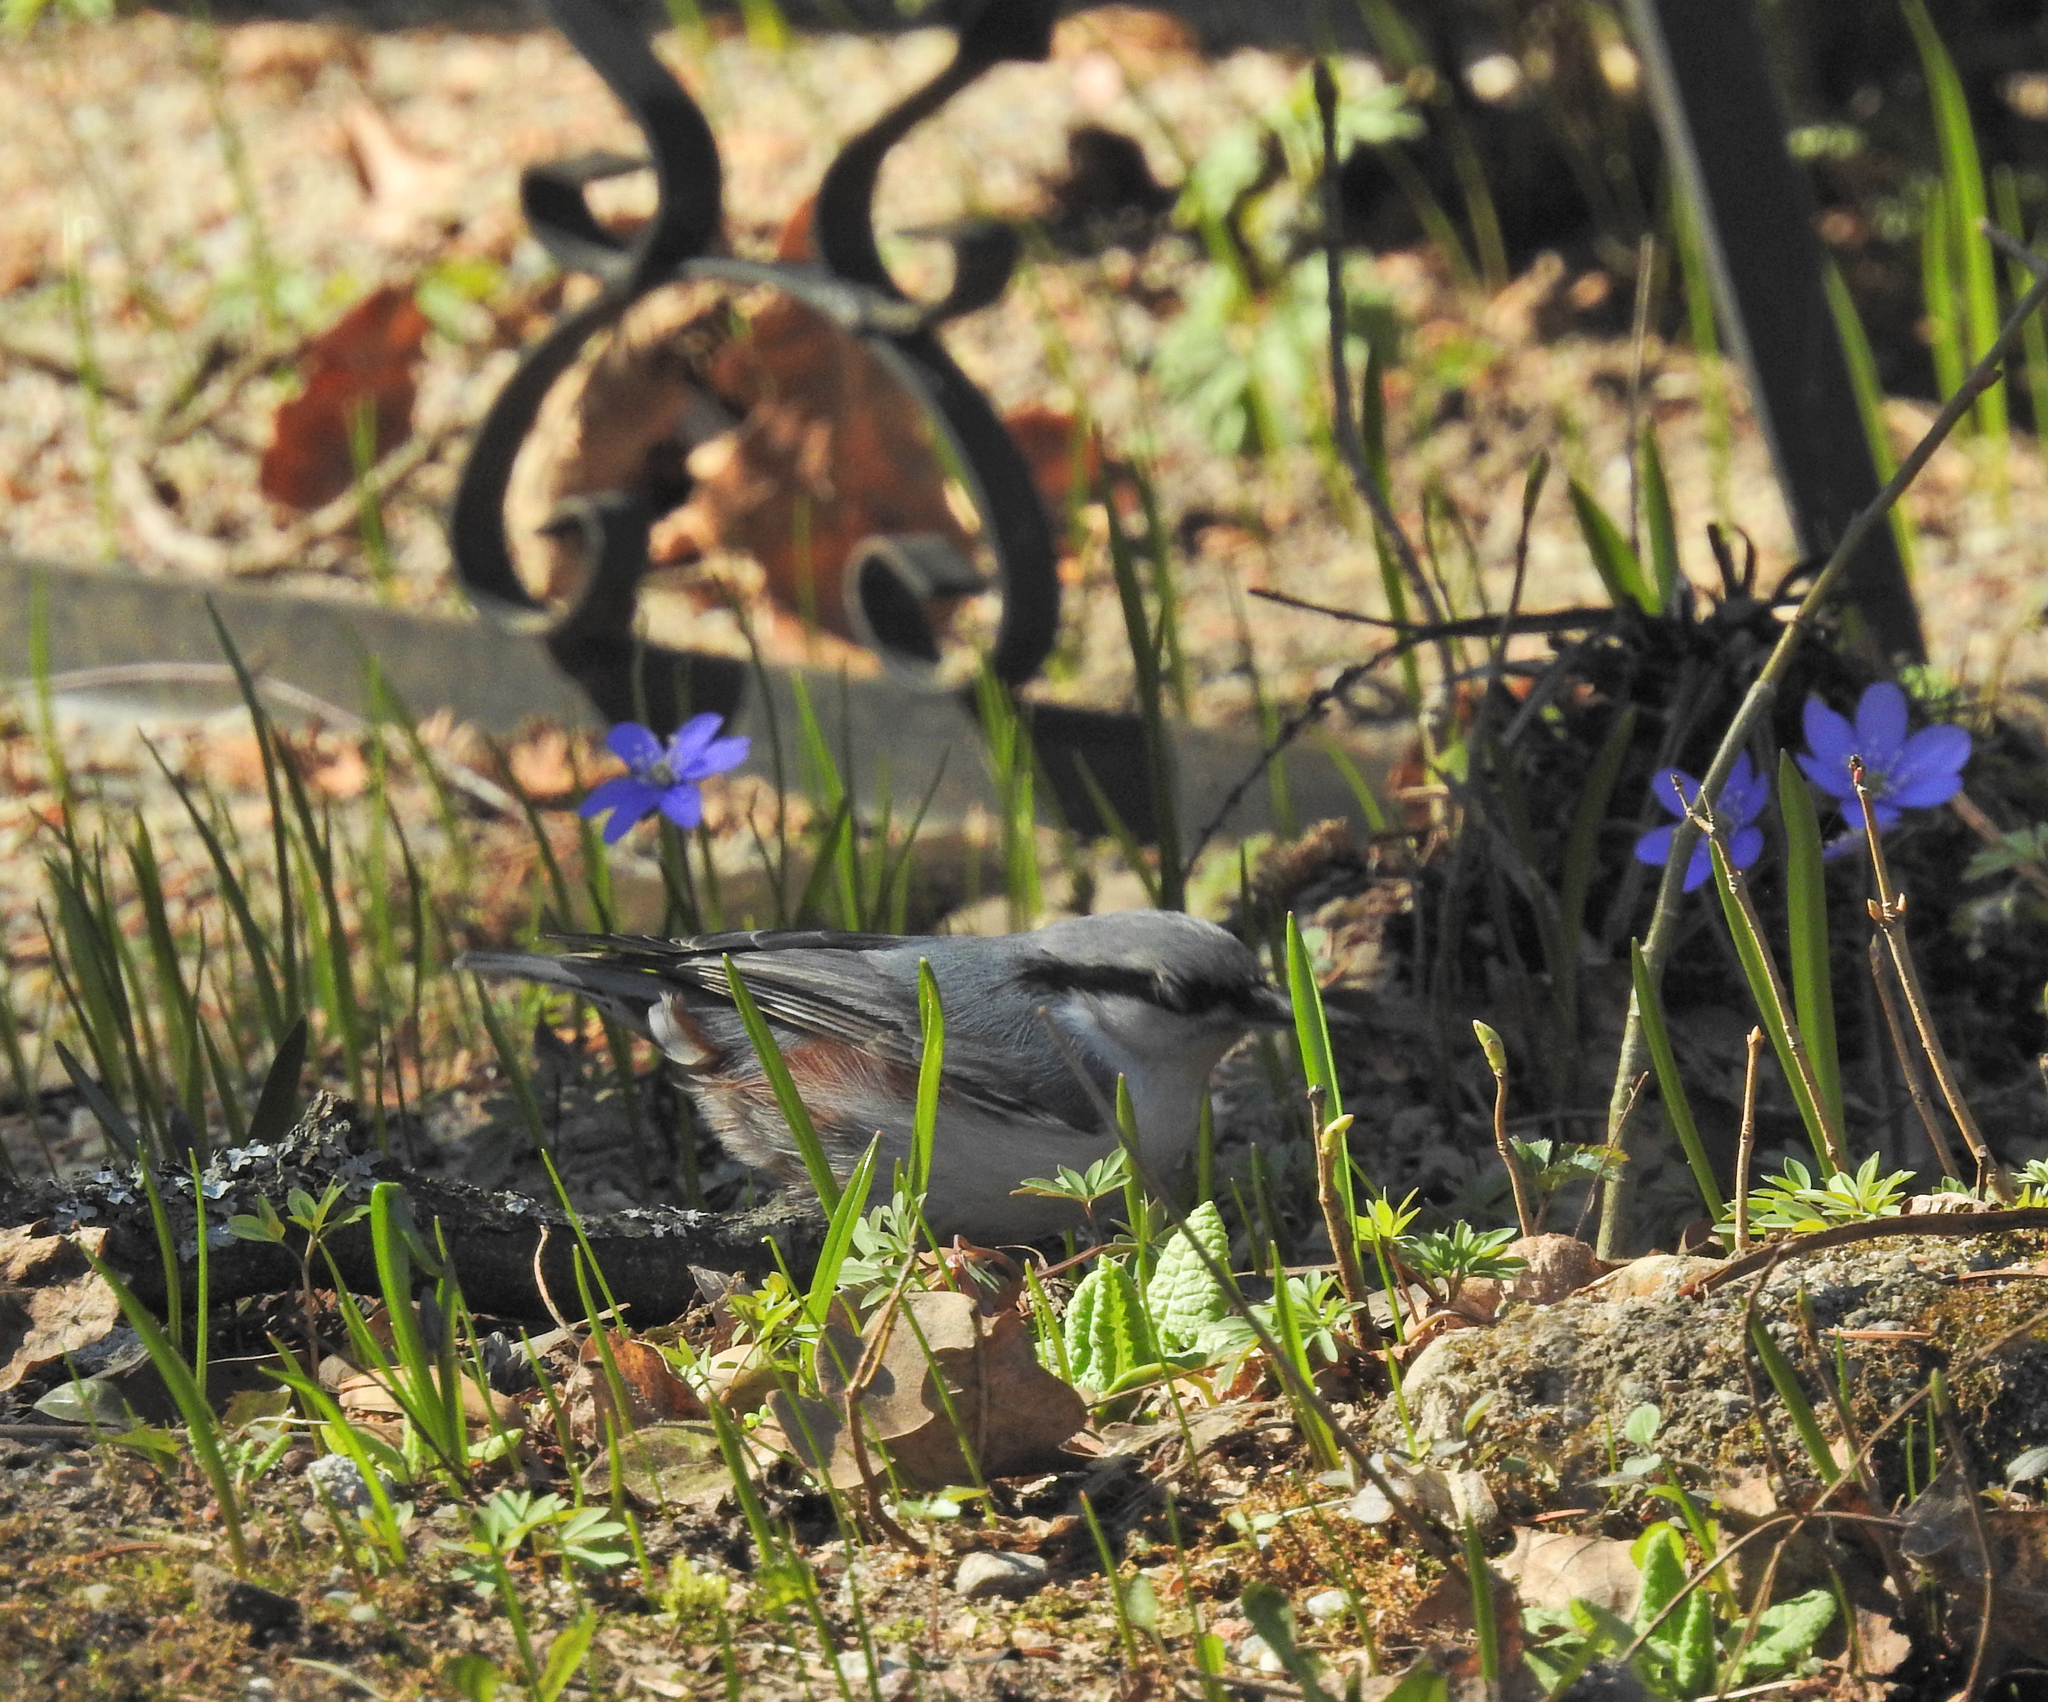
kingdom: Animalia
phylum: Chordata
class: Aves
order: Passeriformes
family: Sittidae
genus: Sitta
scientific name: Sitta europaea
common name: Eurasian nuthatch
